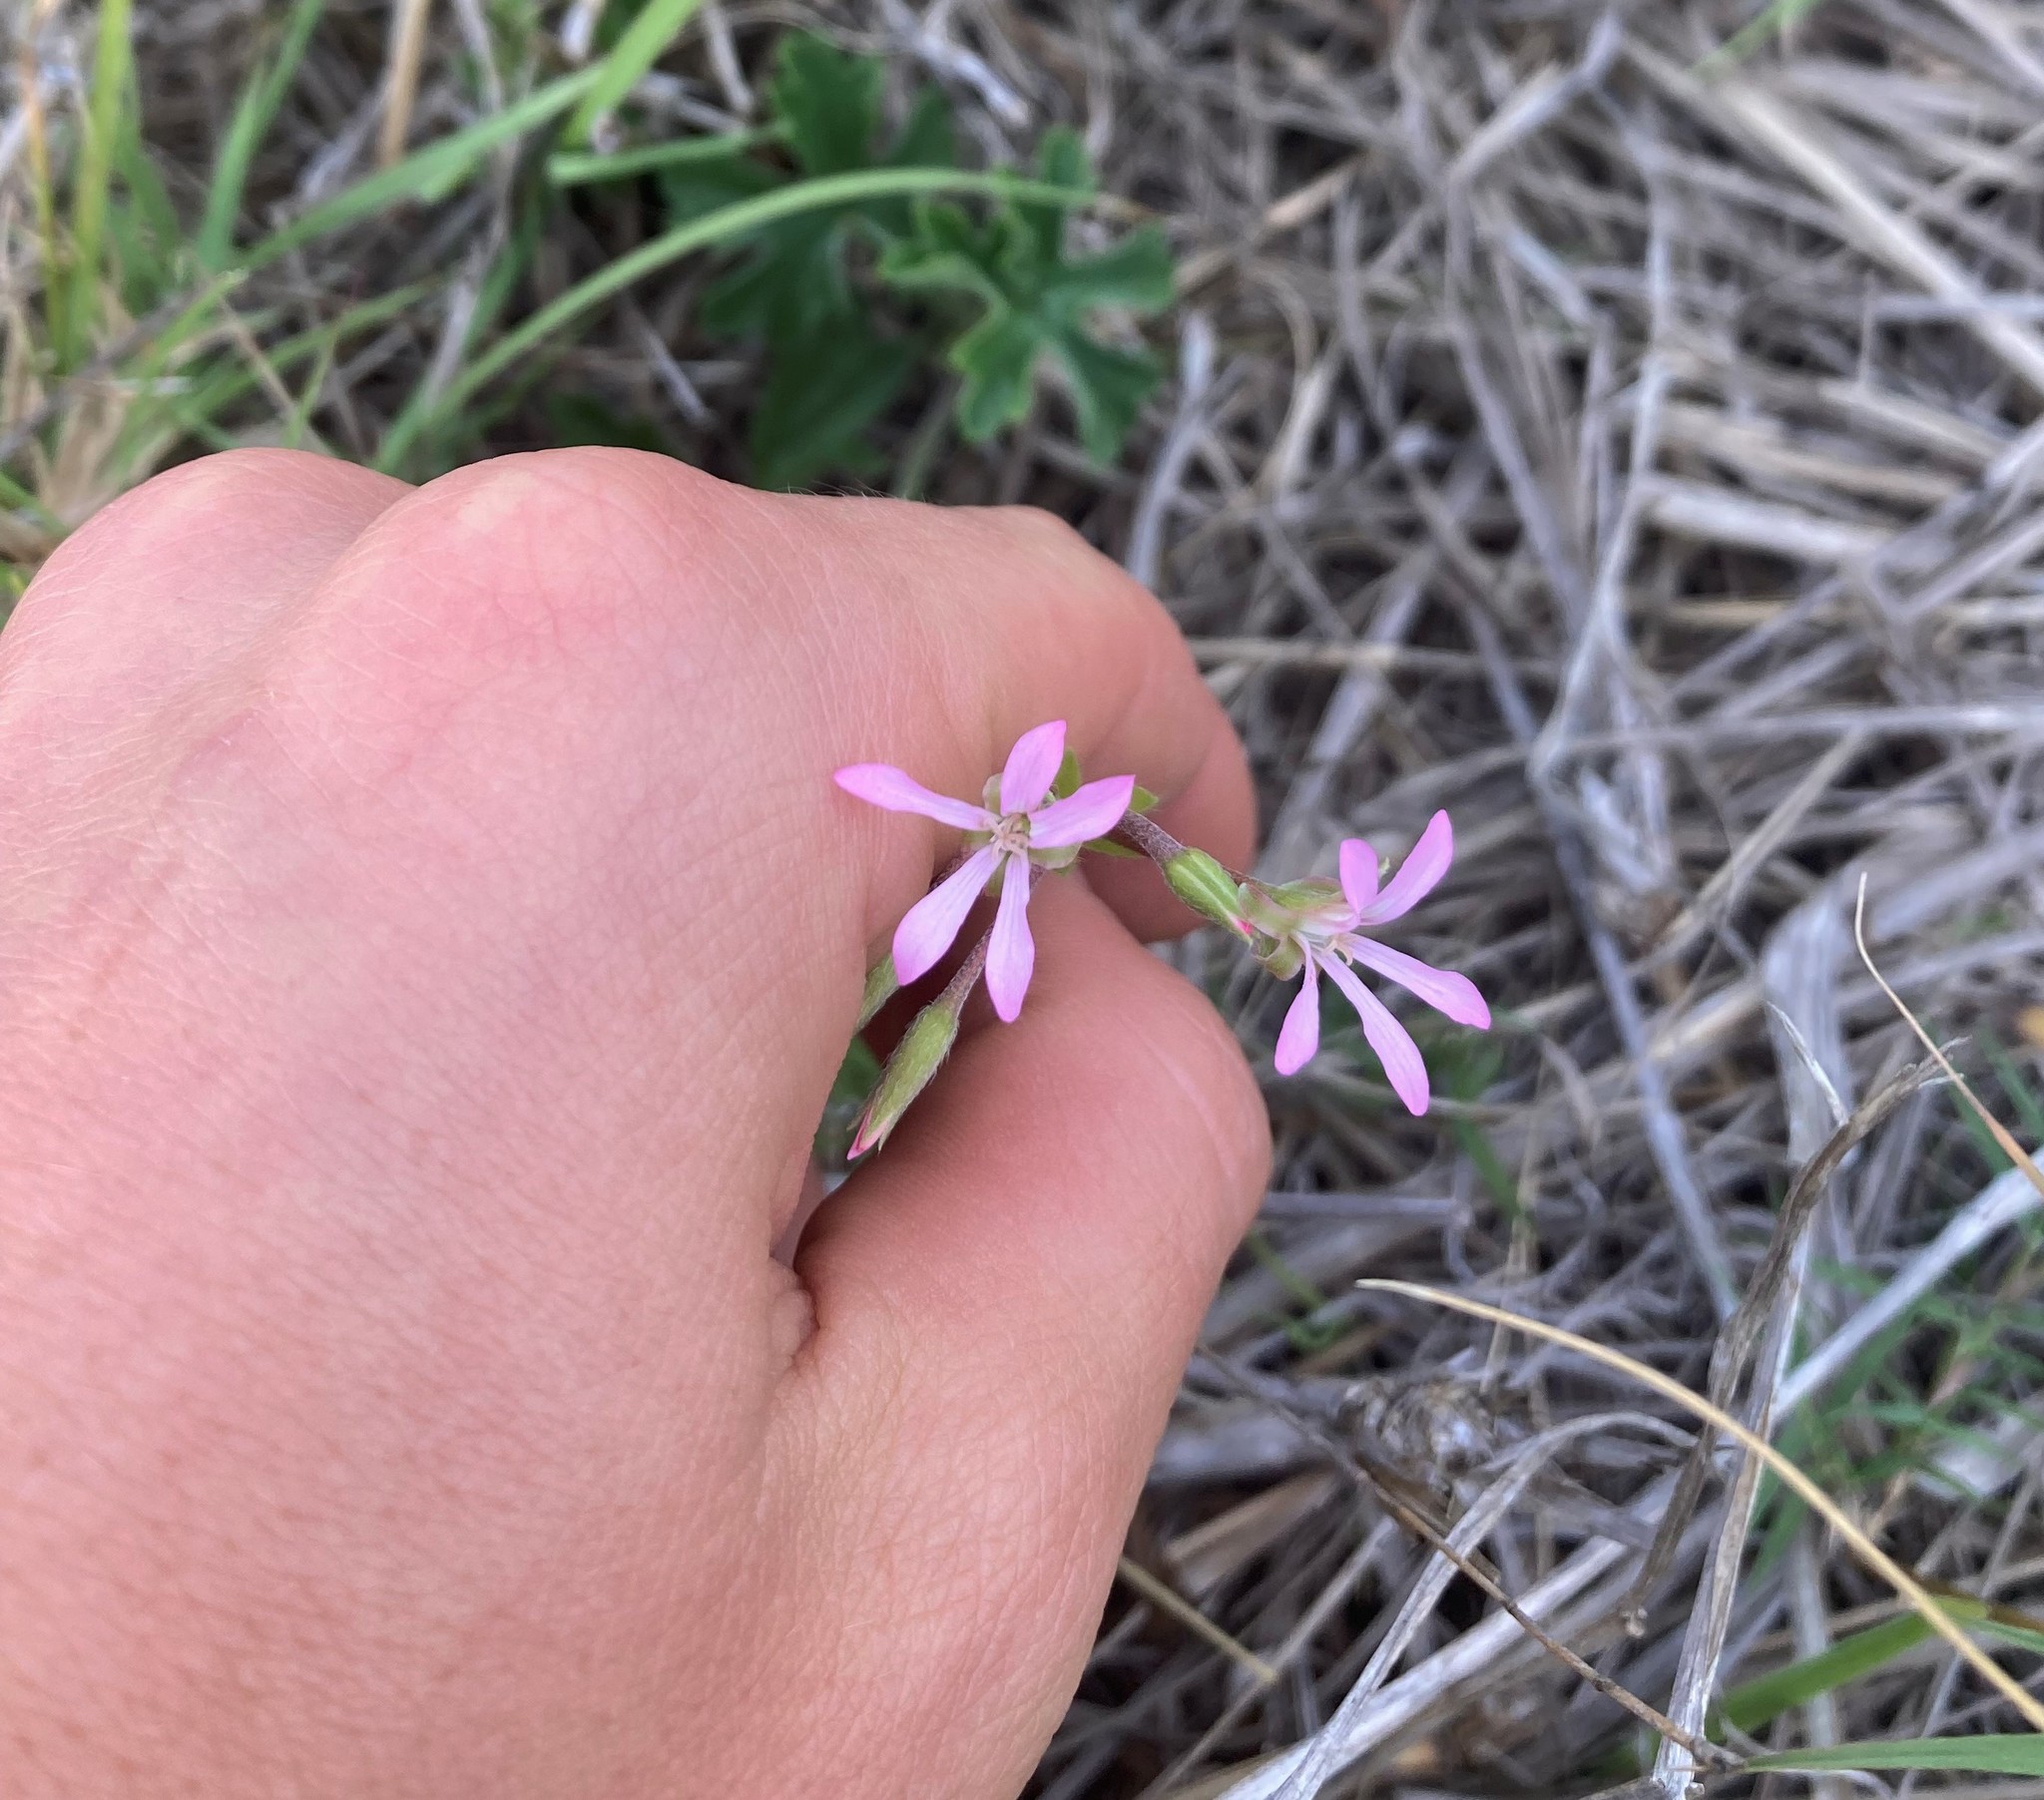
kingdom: Plantae
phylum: Tracheophyta
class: Magnoliopsida
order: Geraniales
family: Geraniaceae
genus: Pelargonium
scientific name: Pelargonium alchemilloides
